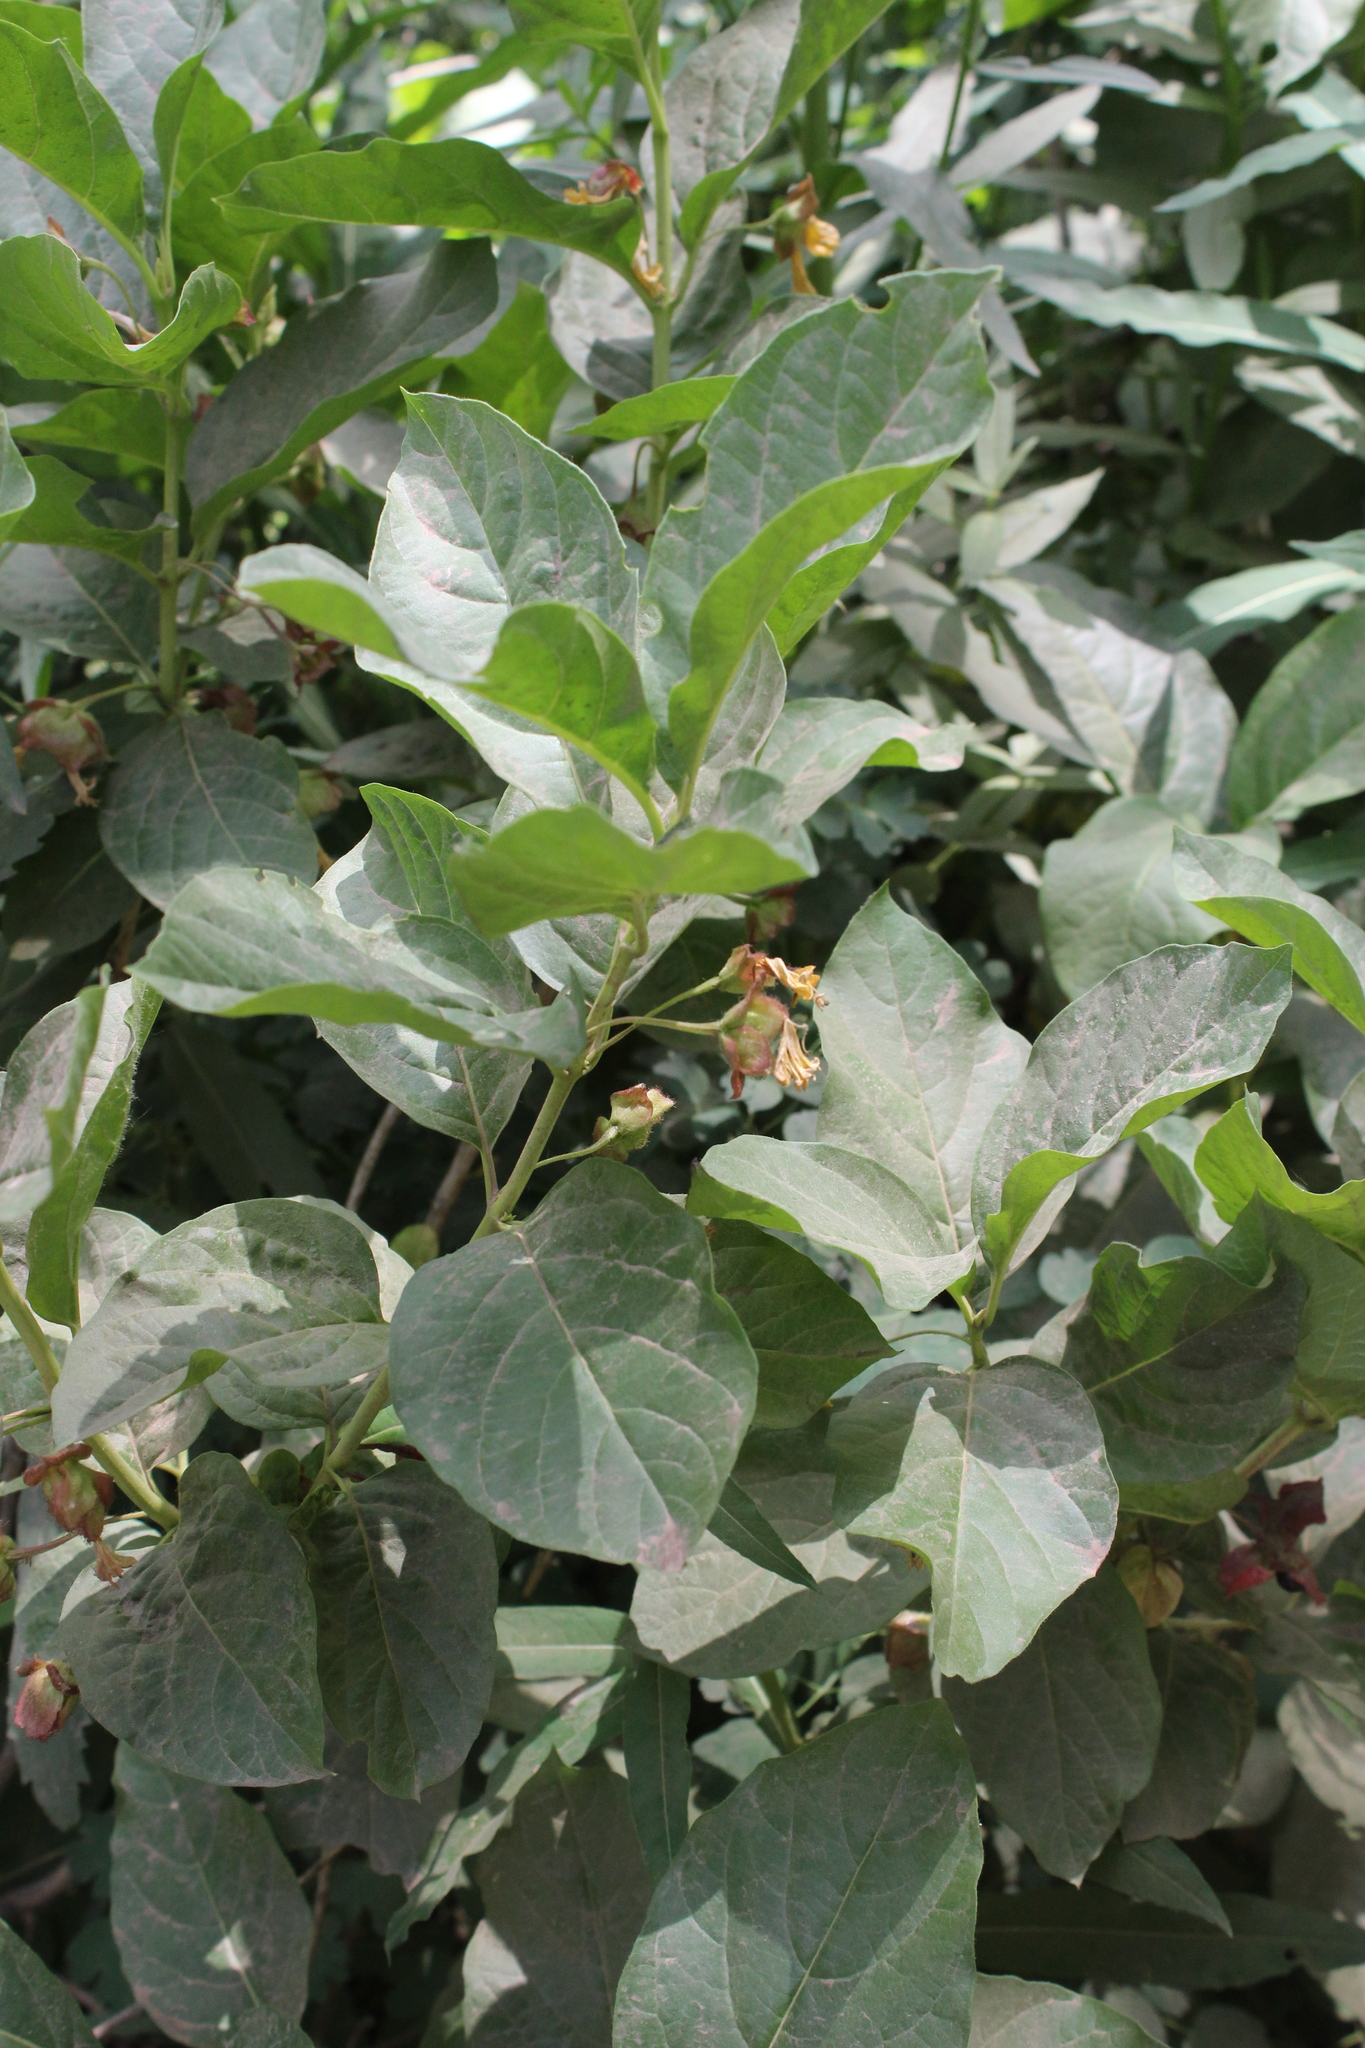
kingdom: Plantae
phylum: Tracheophyta
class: Magnoliopsida
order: Dipsacales
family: Caprifoliaceae
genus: Lonicera
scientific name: Lonicera involucrata
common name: Californian honeysuckle
